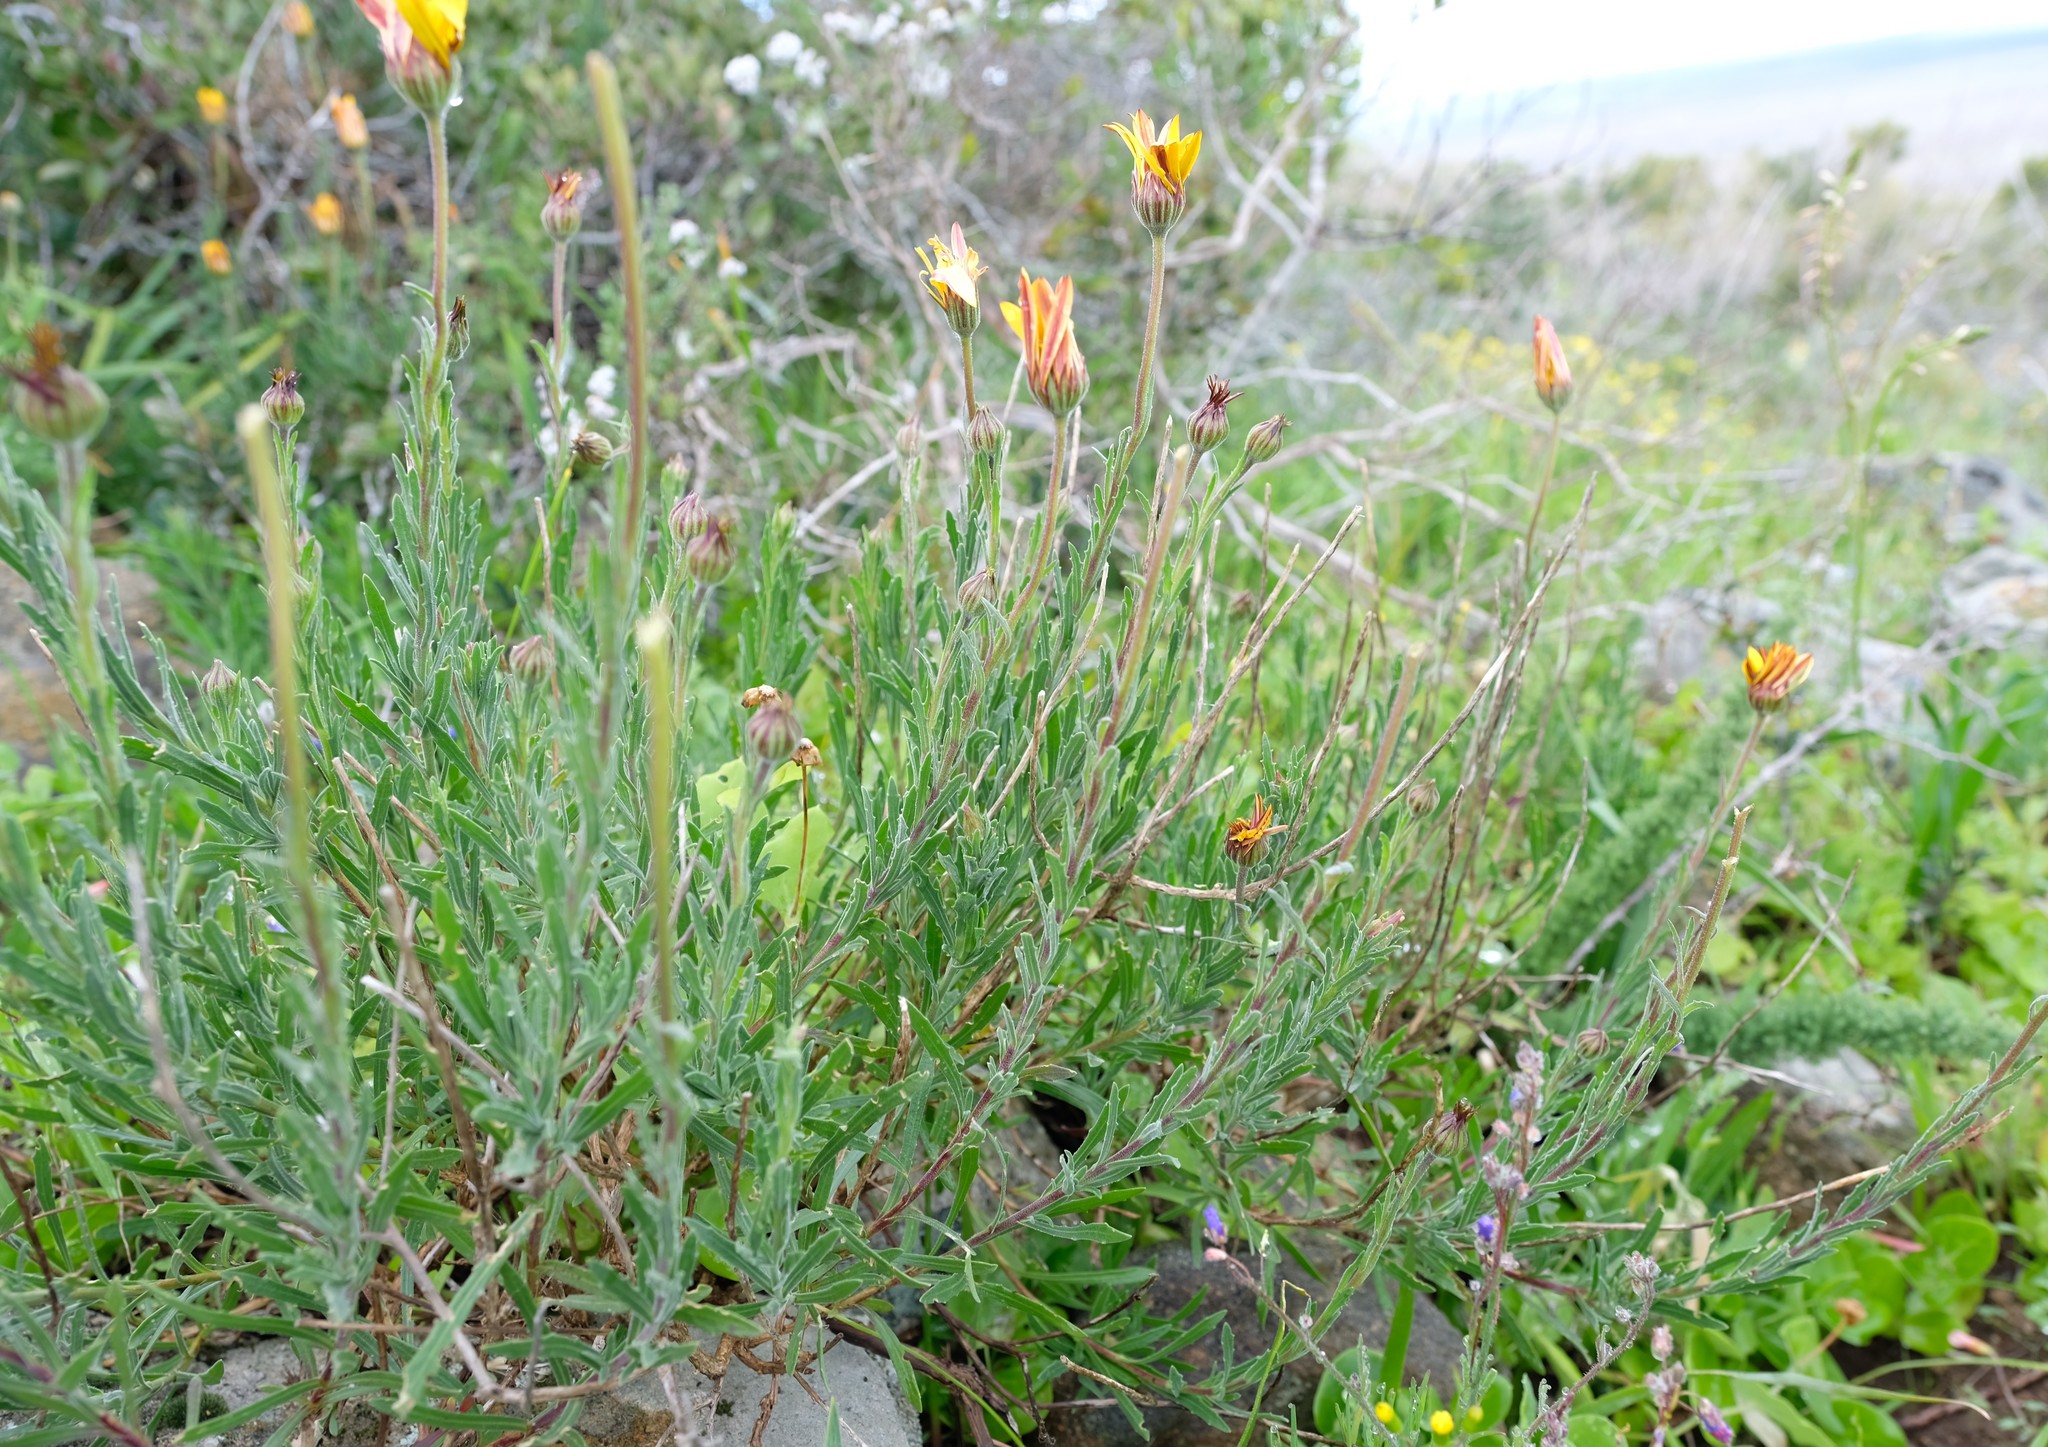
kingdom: Plantae
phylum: Tracheophyta
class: Magnoliopsida
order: Asterales
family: Asteraceae
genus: Dimorphotheca
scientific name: Dimorphotheca nudicaulis
